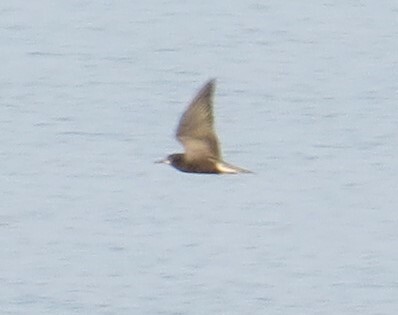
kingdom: Animalia
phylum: Chordata
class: Aves
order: Charadriiformes
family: Laridae
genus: Chlidonias
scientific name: Chlidonias niger
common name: Black tern
